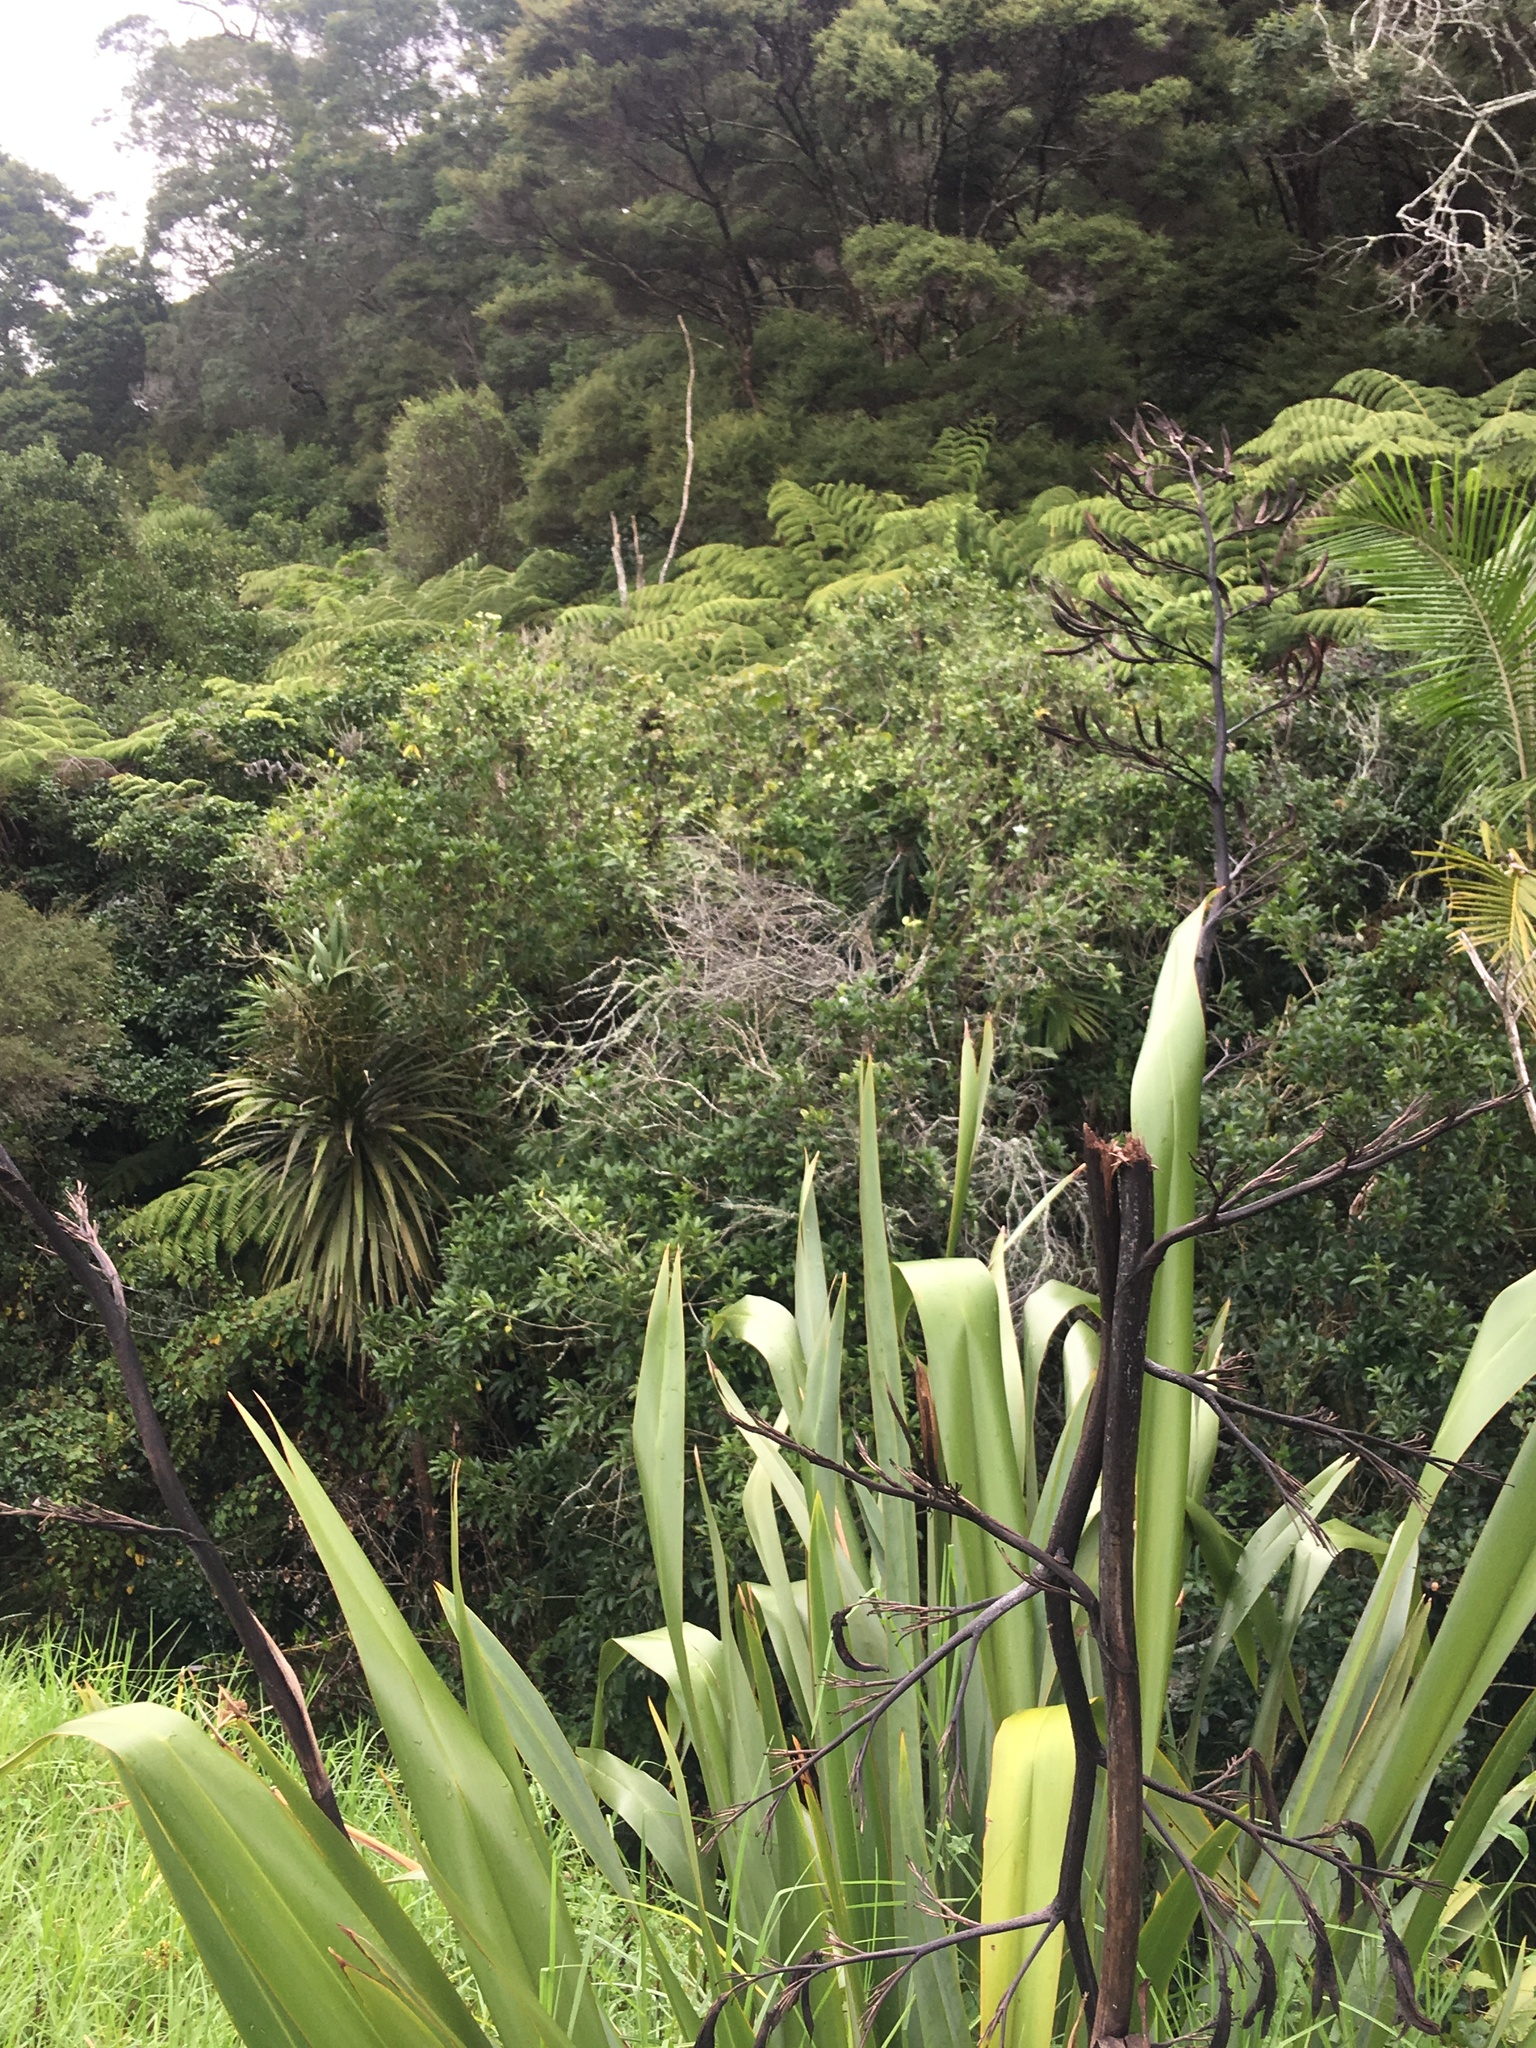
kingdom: Plantae
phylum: Tracheophyta
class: Liliopsida
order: Asparagales
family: Asparagaceae
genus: Cordyline
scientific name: Cordyline australis
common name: Cabbage-palm
